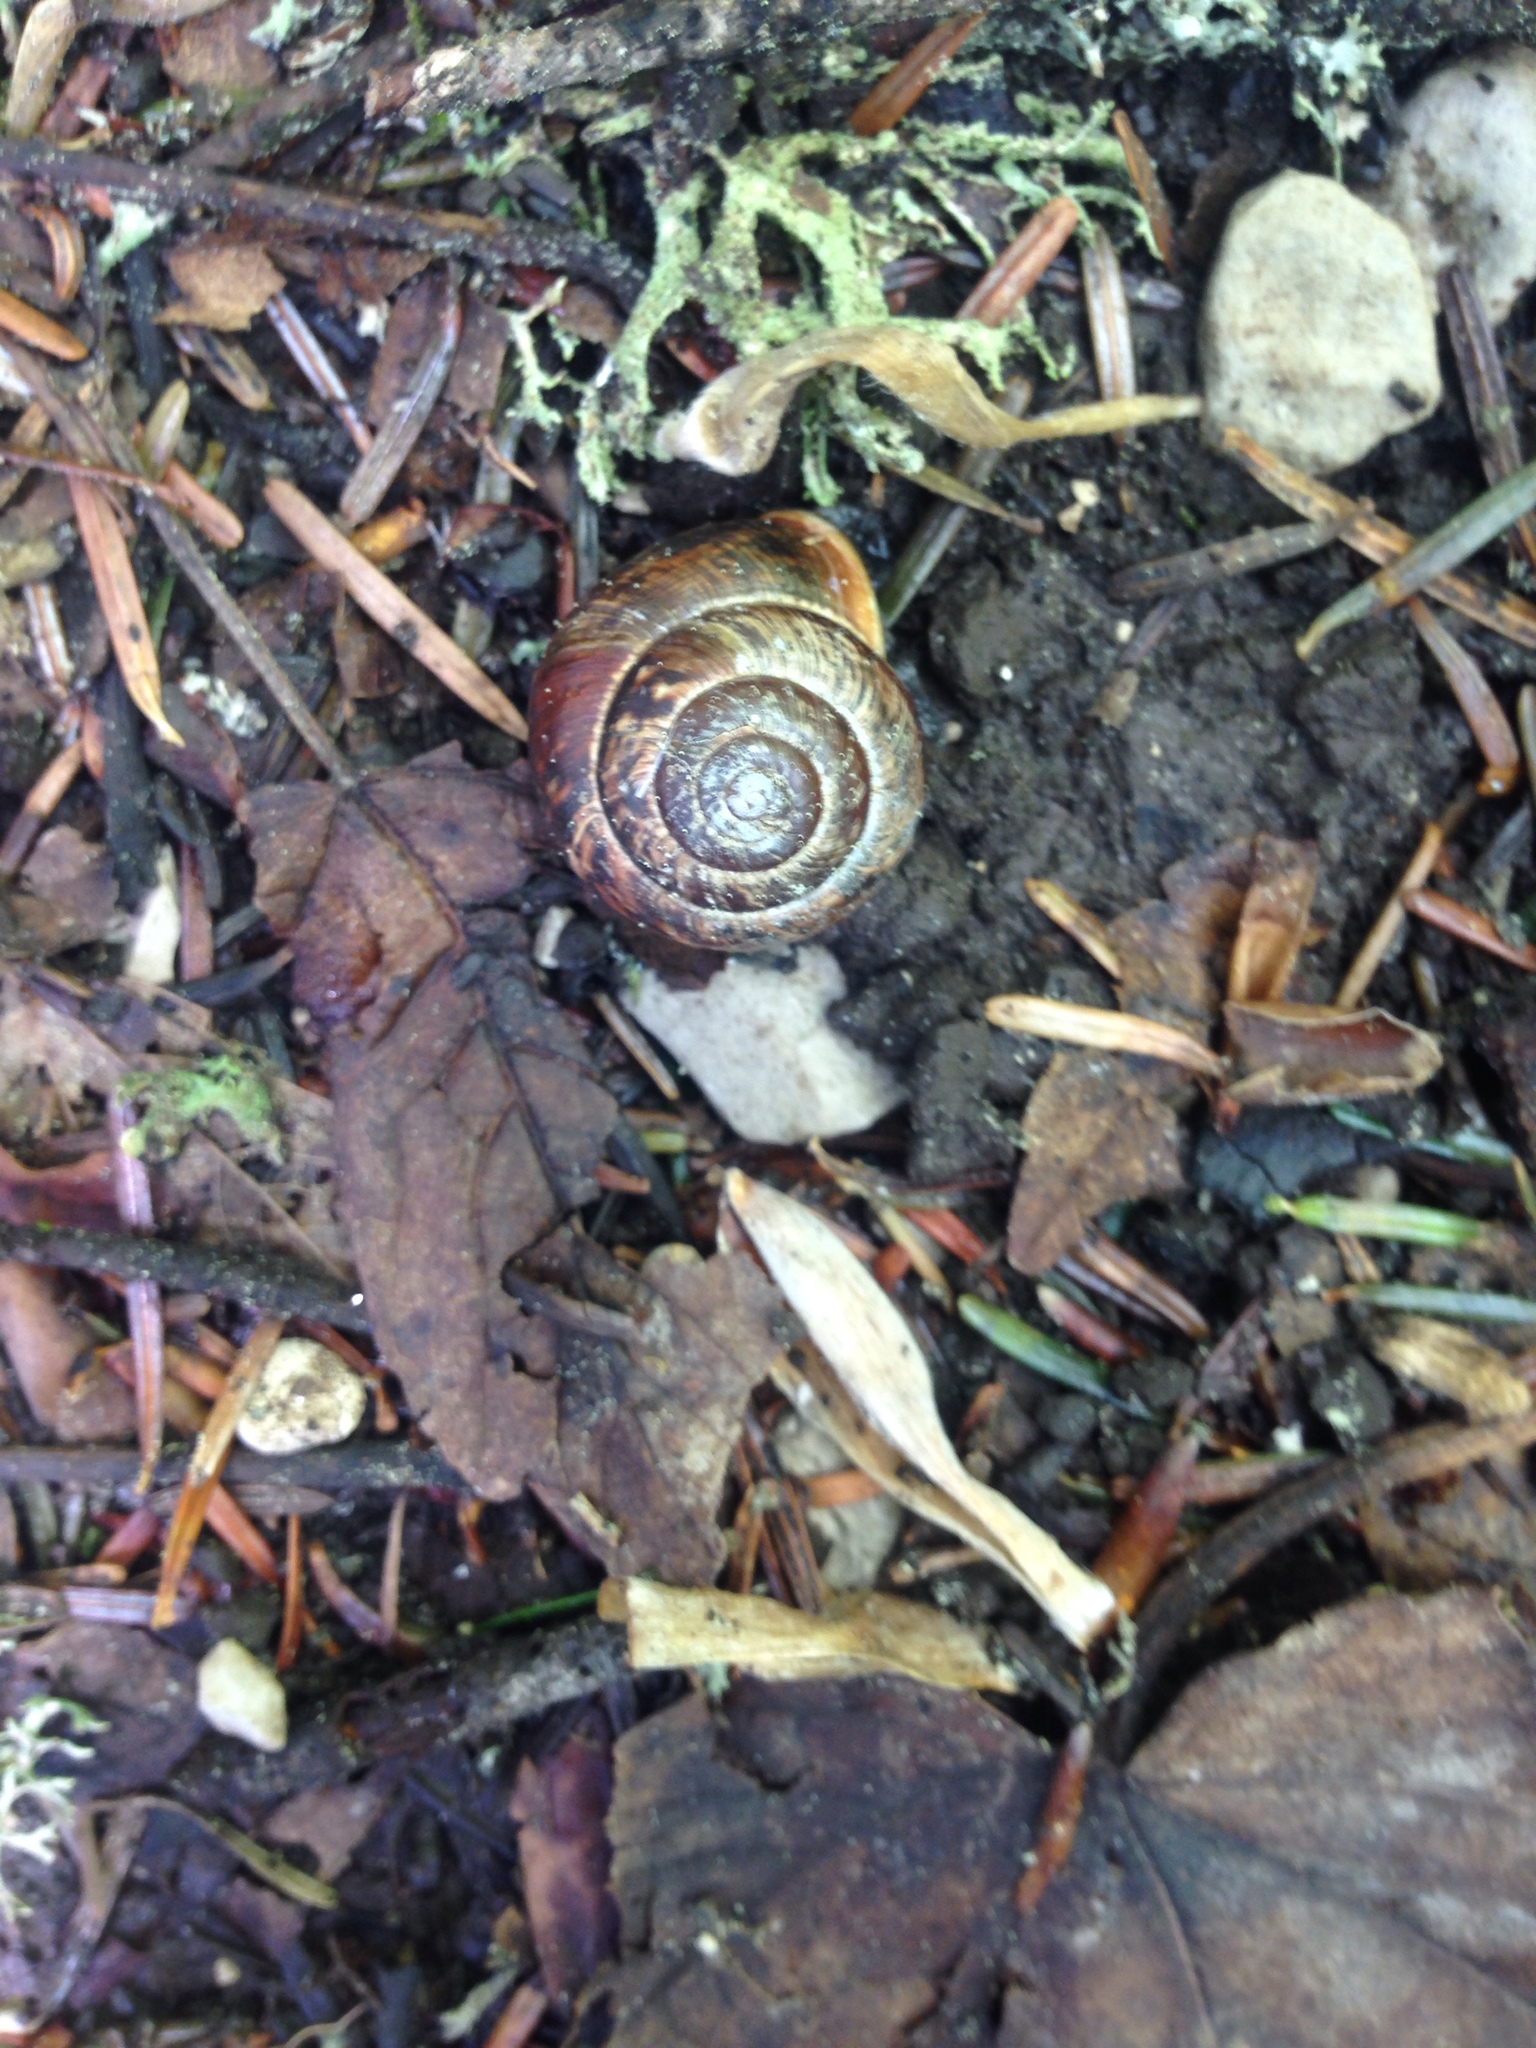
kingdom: Animalia
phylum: Mollusca
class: Gastropoda
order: Stylommatophora
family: Helicidae
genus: Arianta
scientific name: Arianta arbustorum
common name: Copse snail
